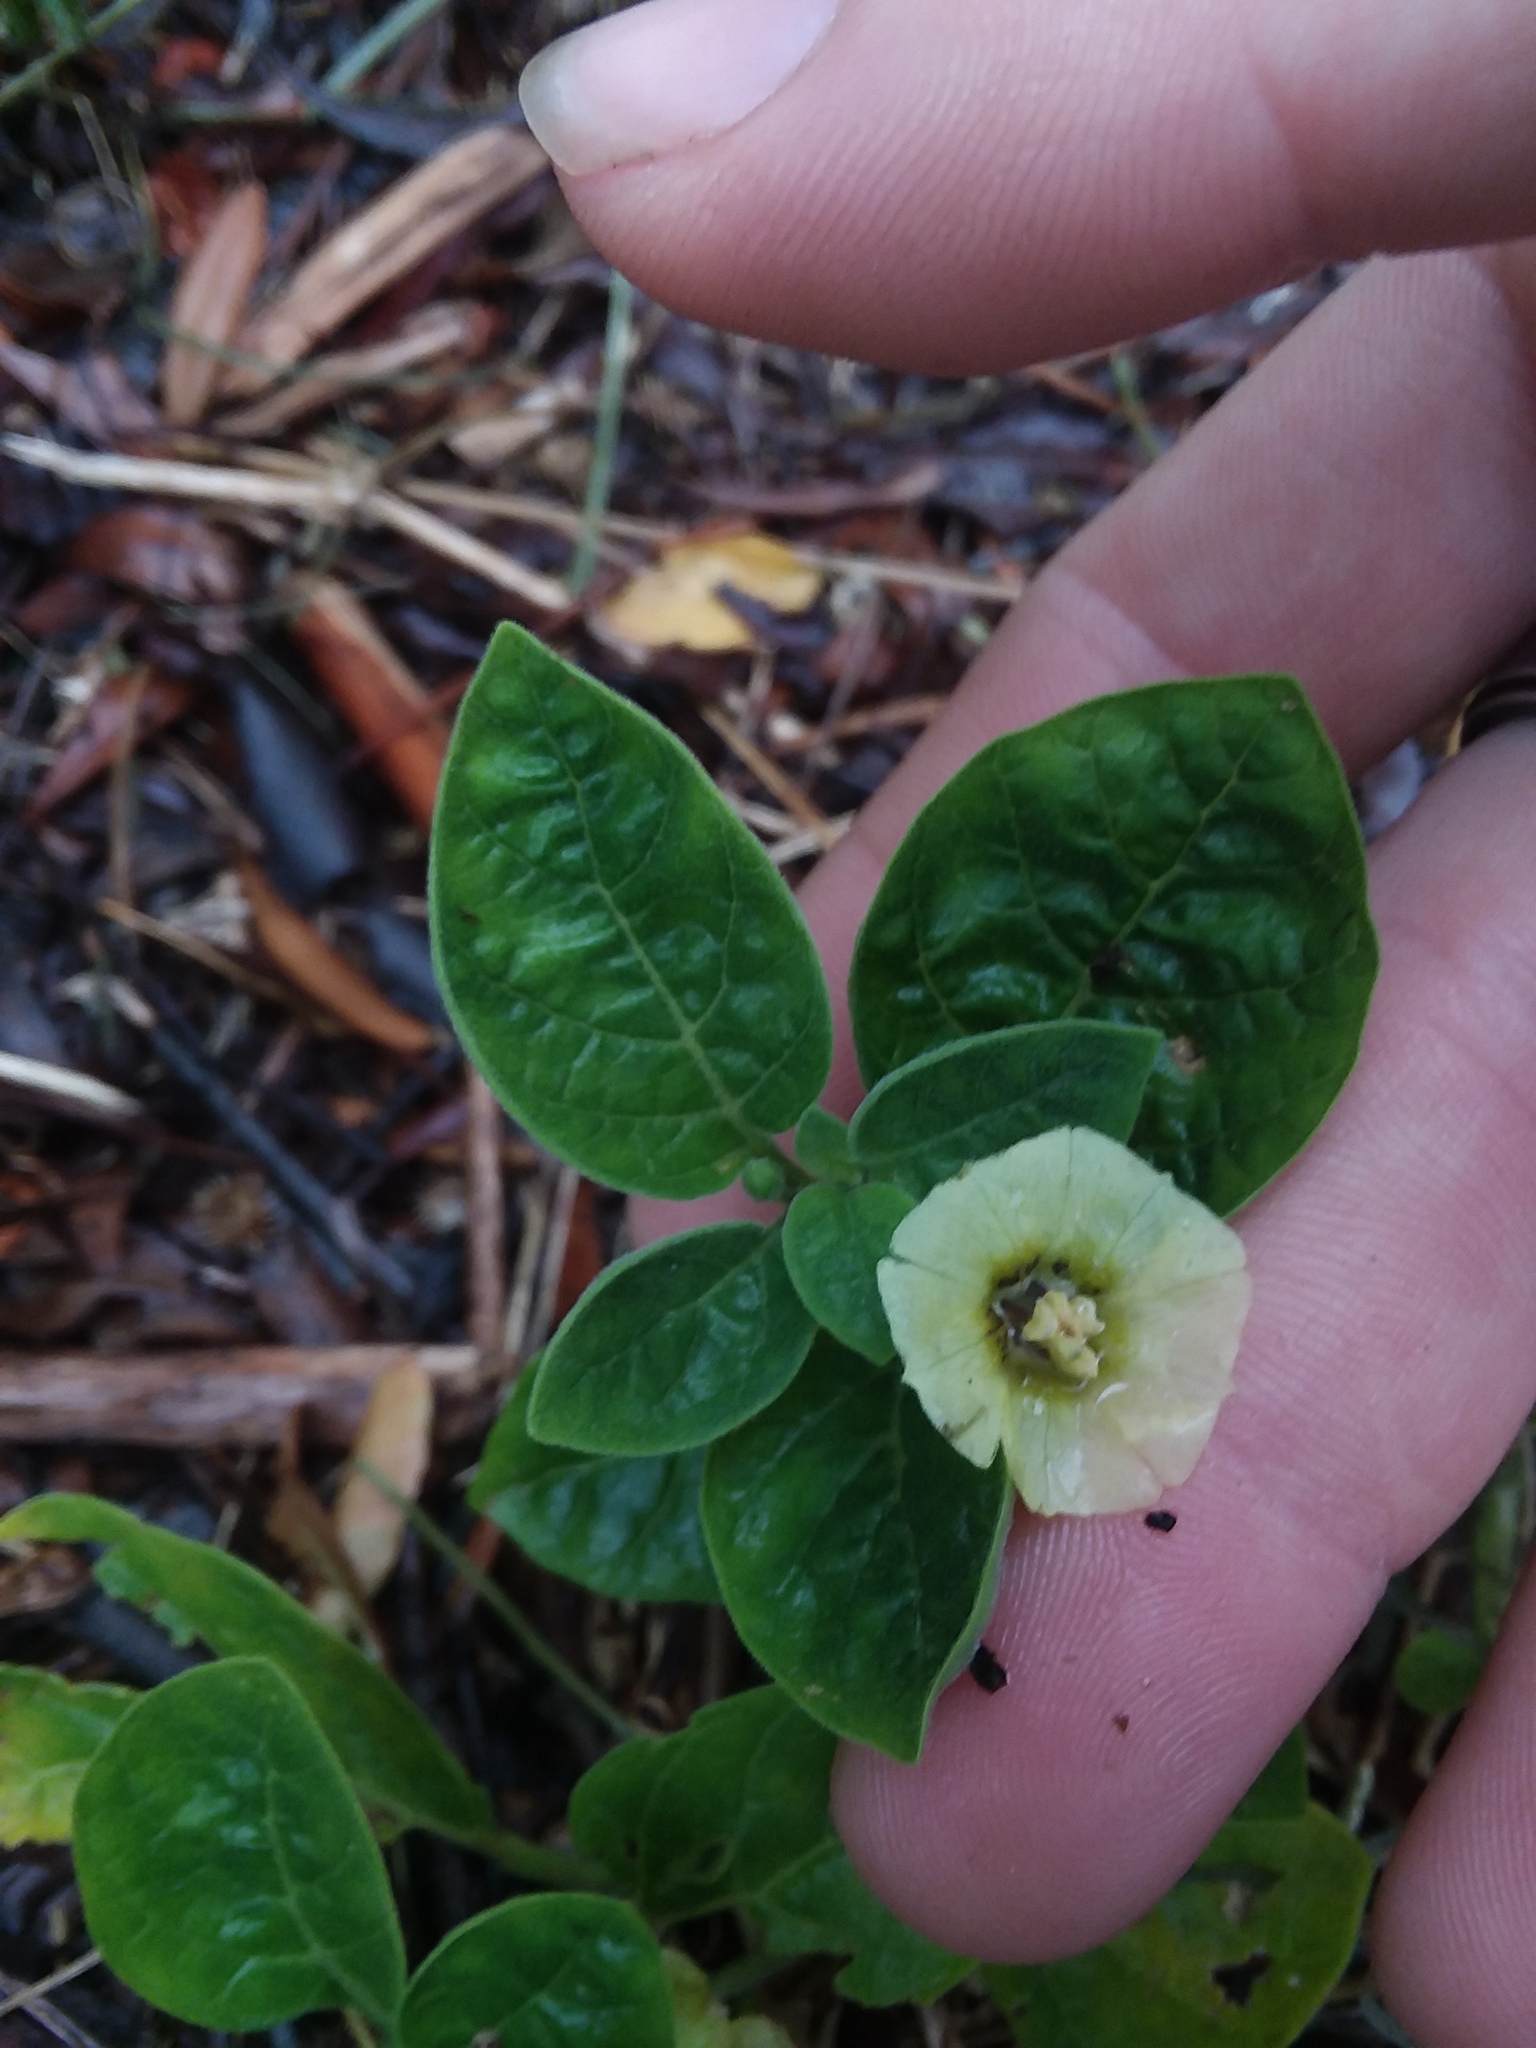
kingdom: Plantae
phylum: Tracheophyta
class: Magnoliopsida
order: Solanales
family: Solanaceae
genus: Physalis
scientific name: Physalis walteri
